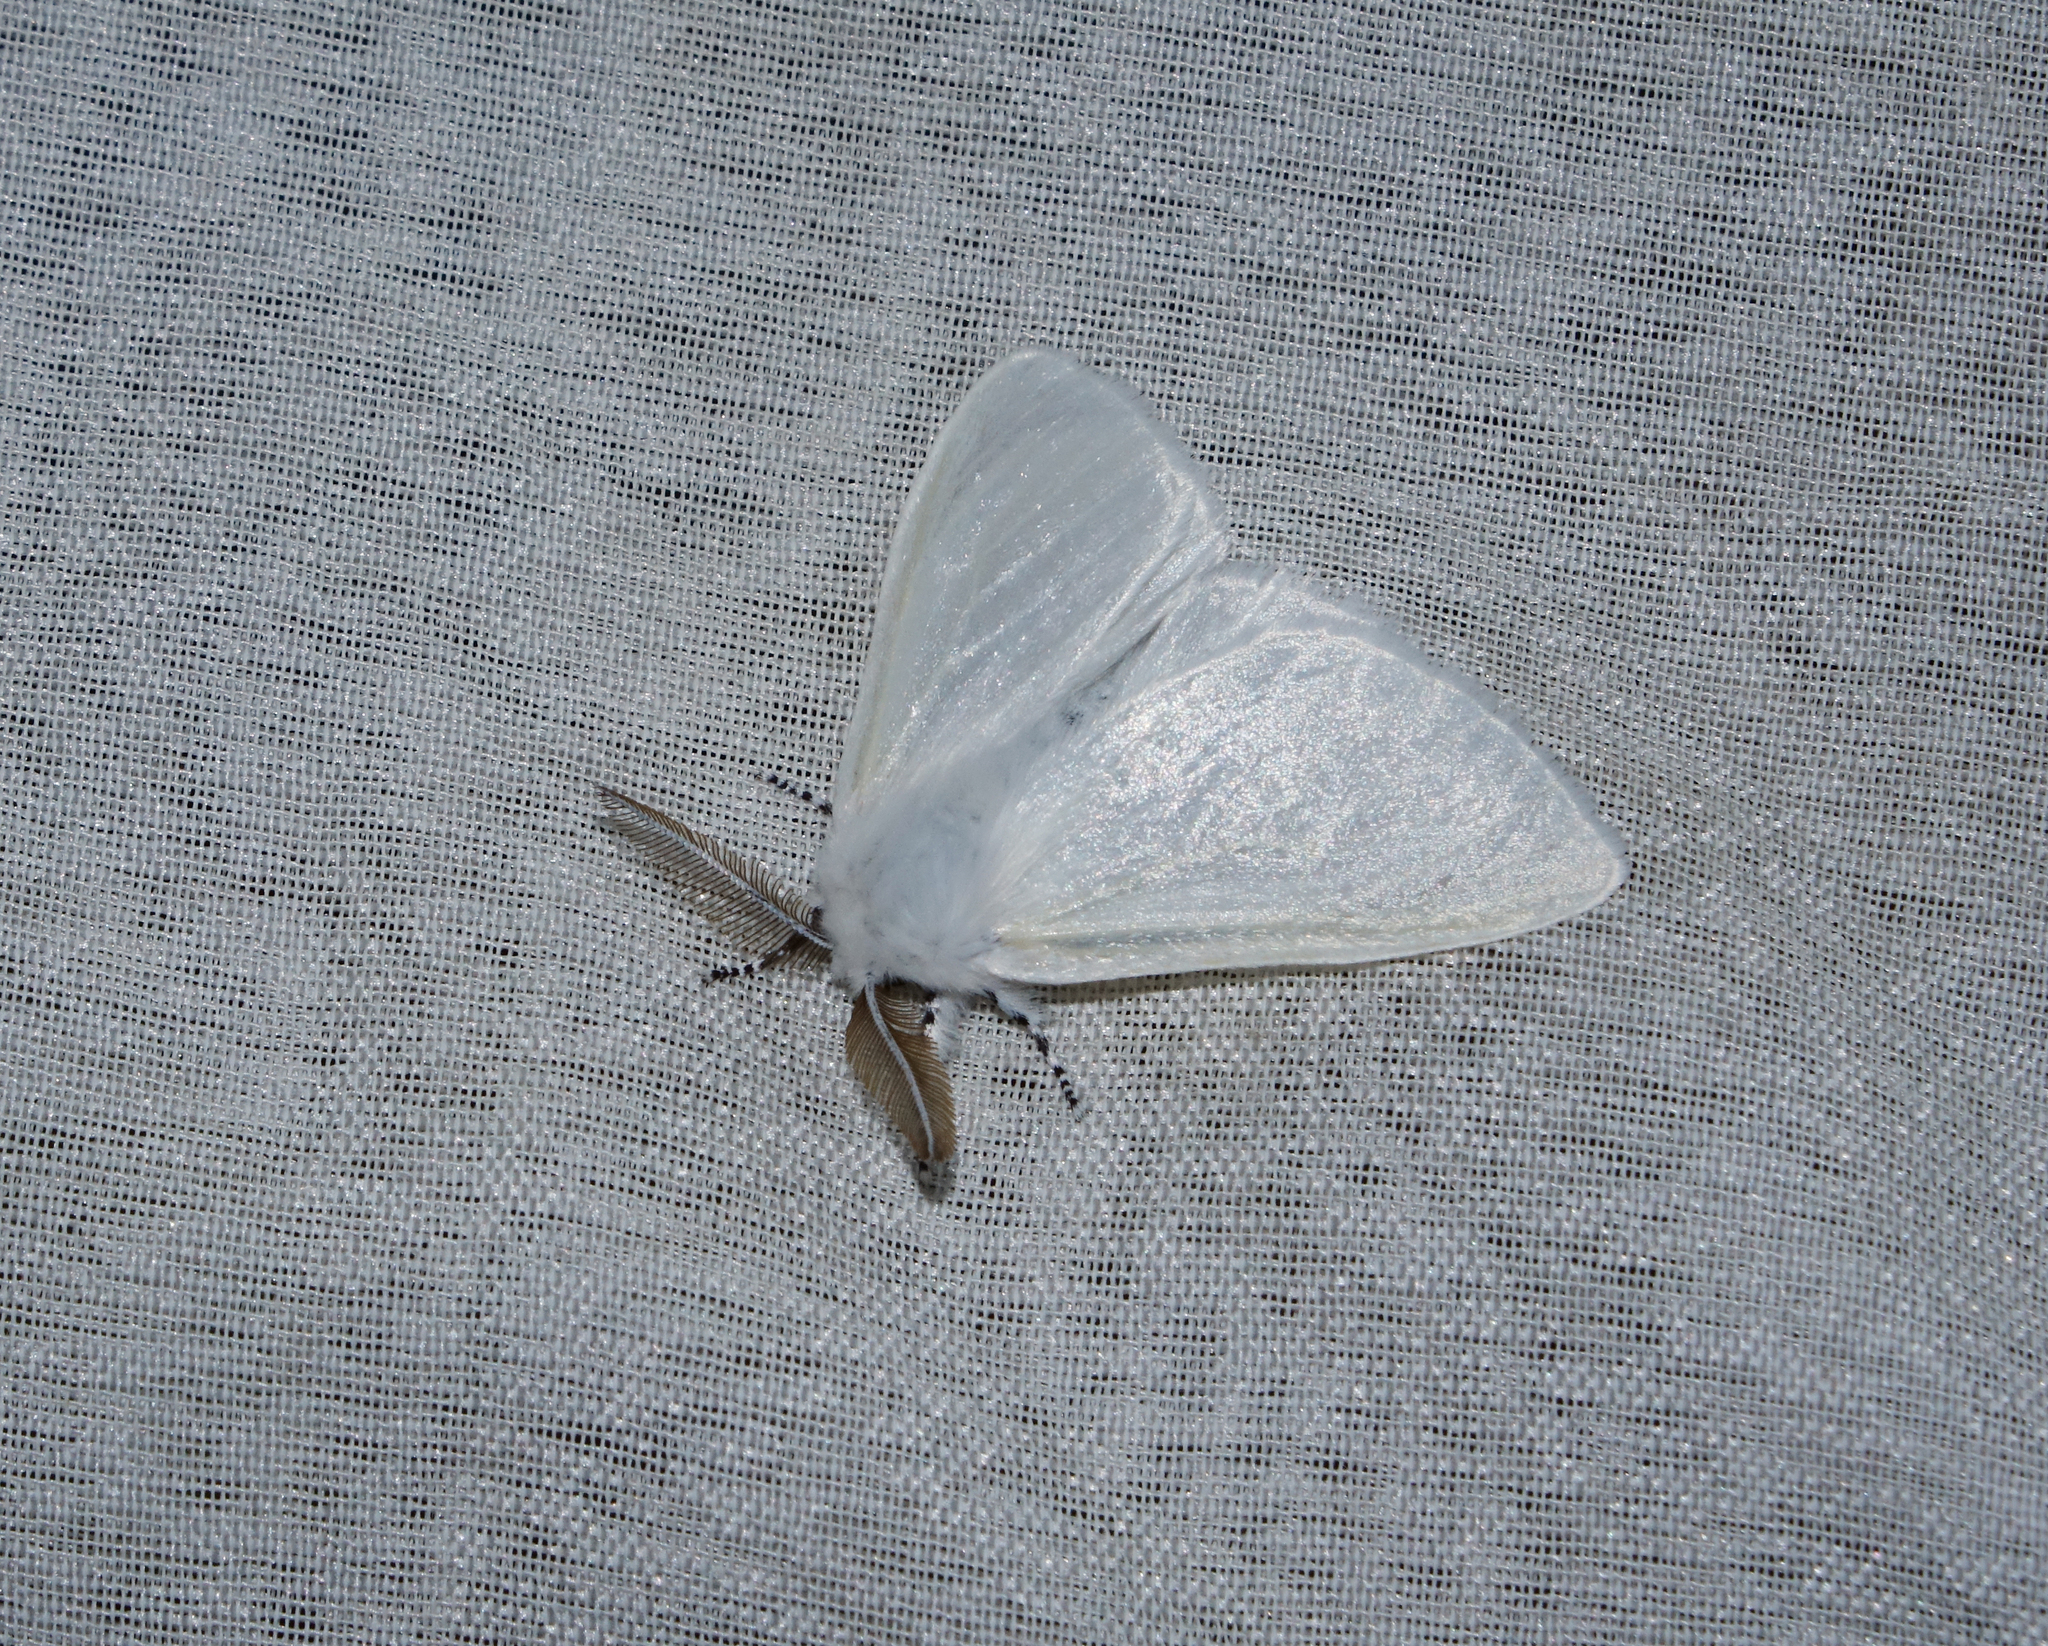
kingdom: Animalia
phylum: Arthropoda
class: Insecta
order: Lepidoptera
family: Erebidae
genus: Leucoma
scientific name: Leucoma salicis
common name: White satin moth
